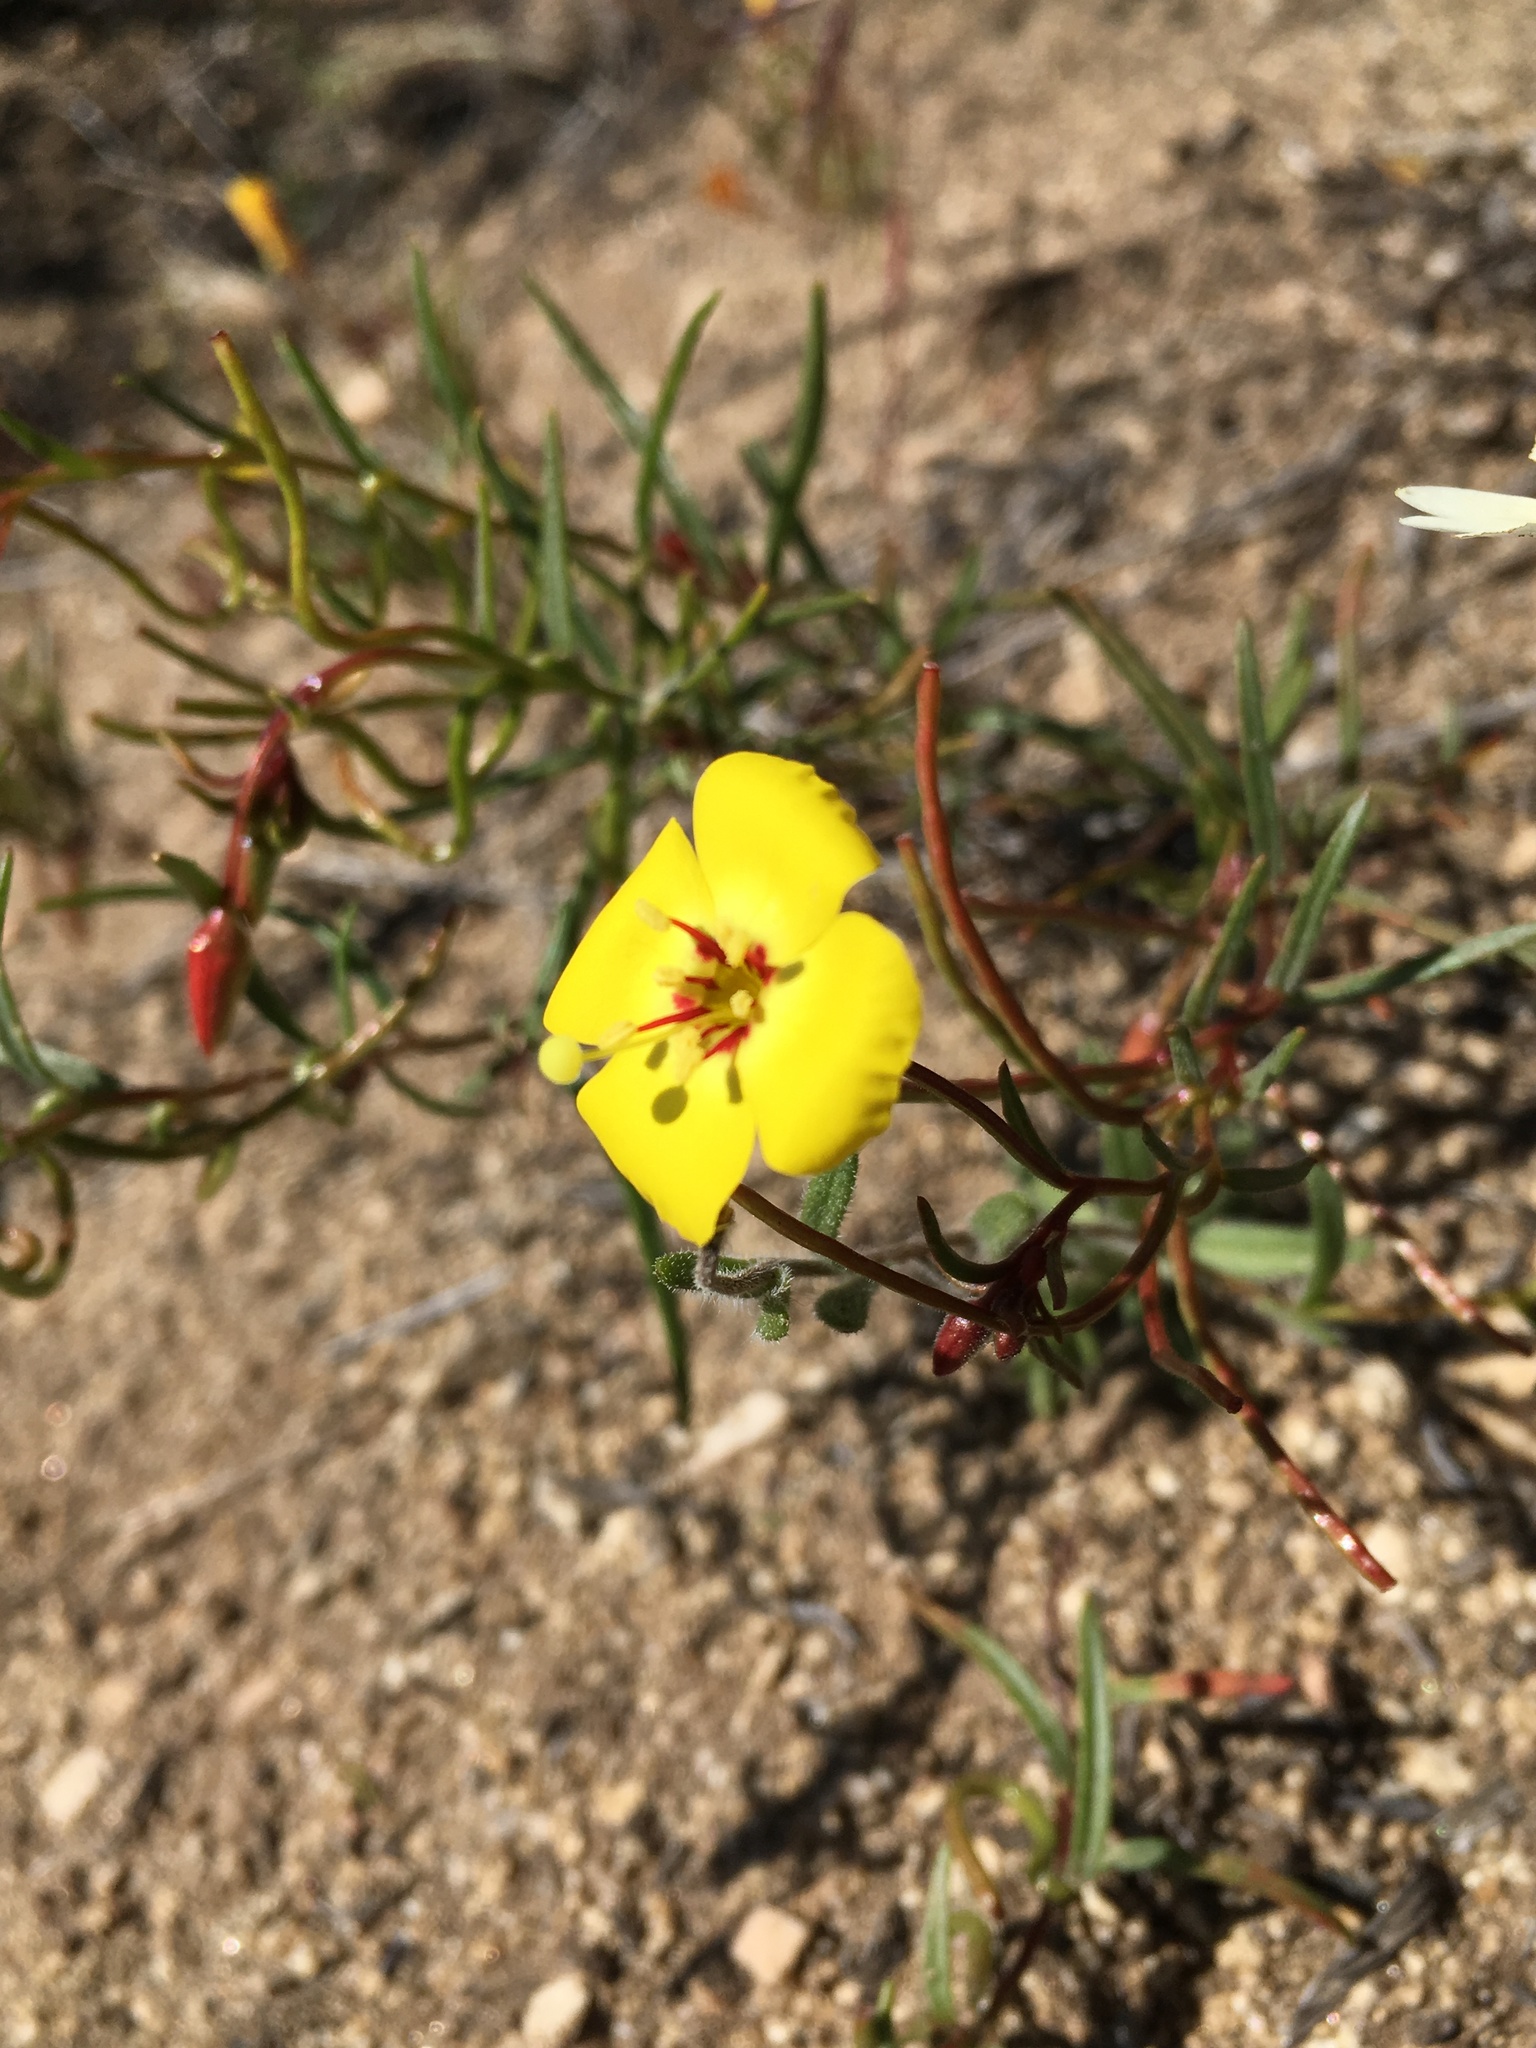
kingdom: Plantae
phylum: Tracheophyta
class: Magnoliopsida
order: Myrtales
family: Onagraceae
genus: Camissonia
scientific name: Camissonia campestris
